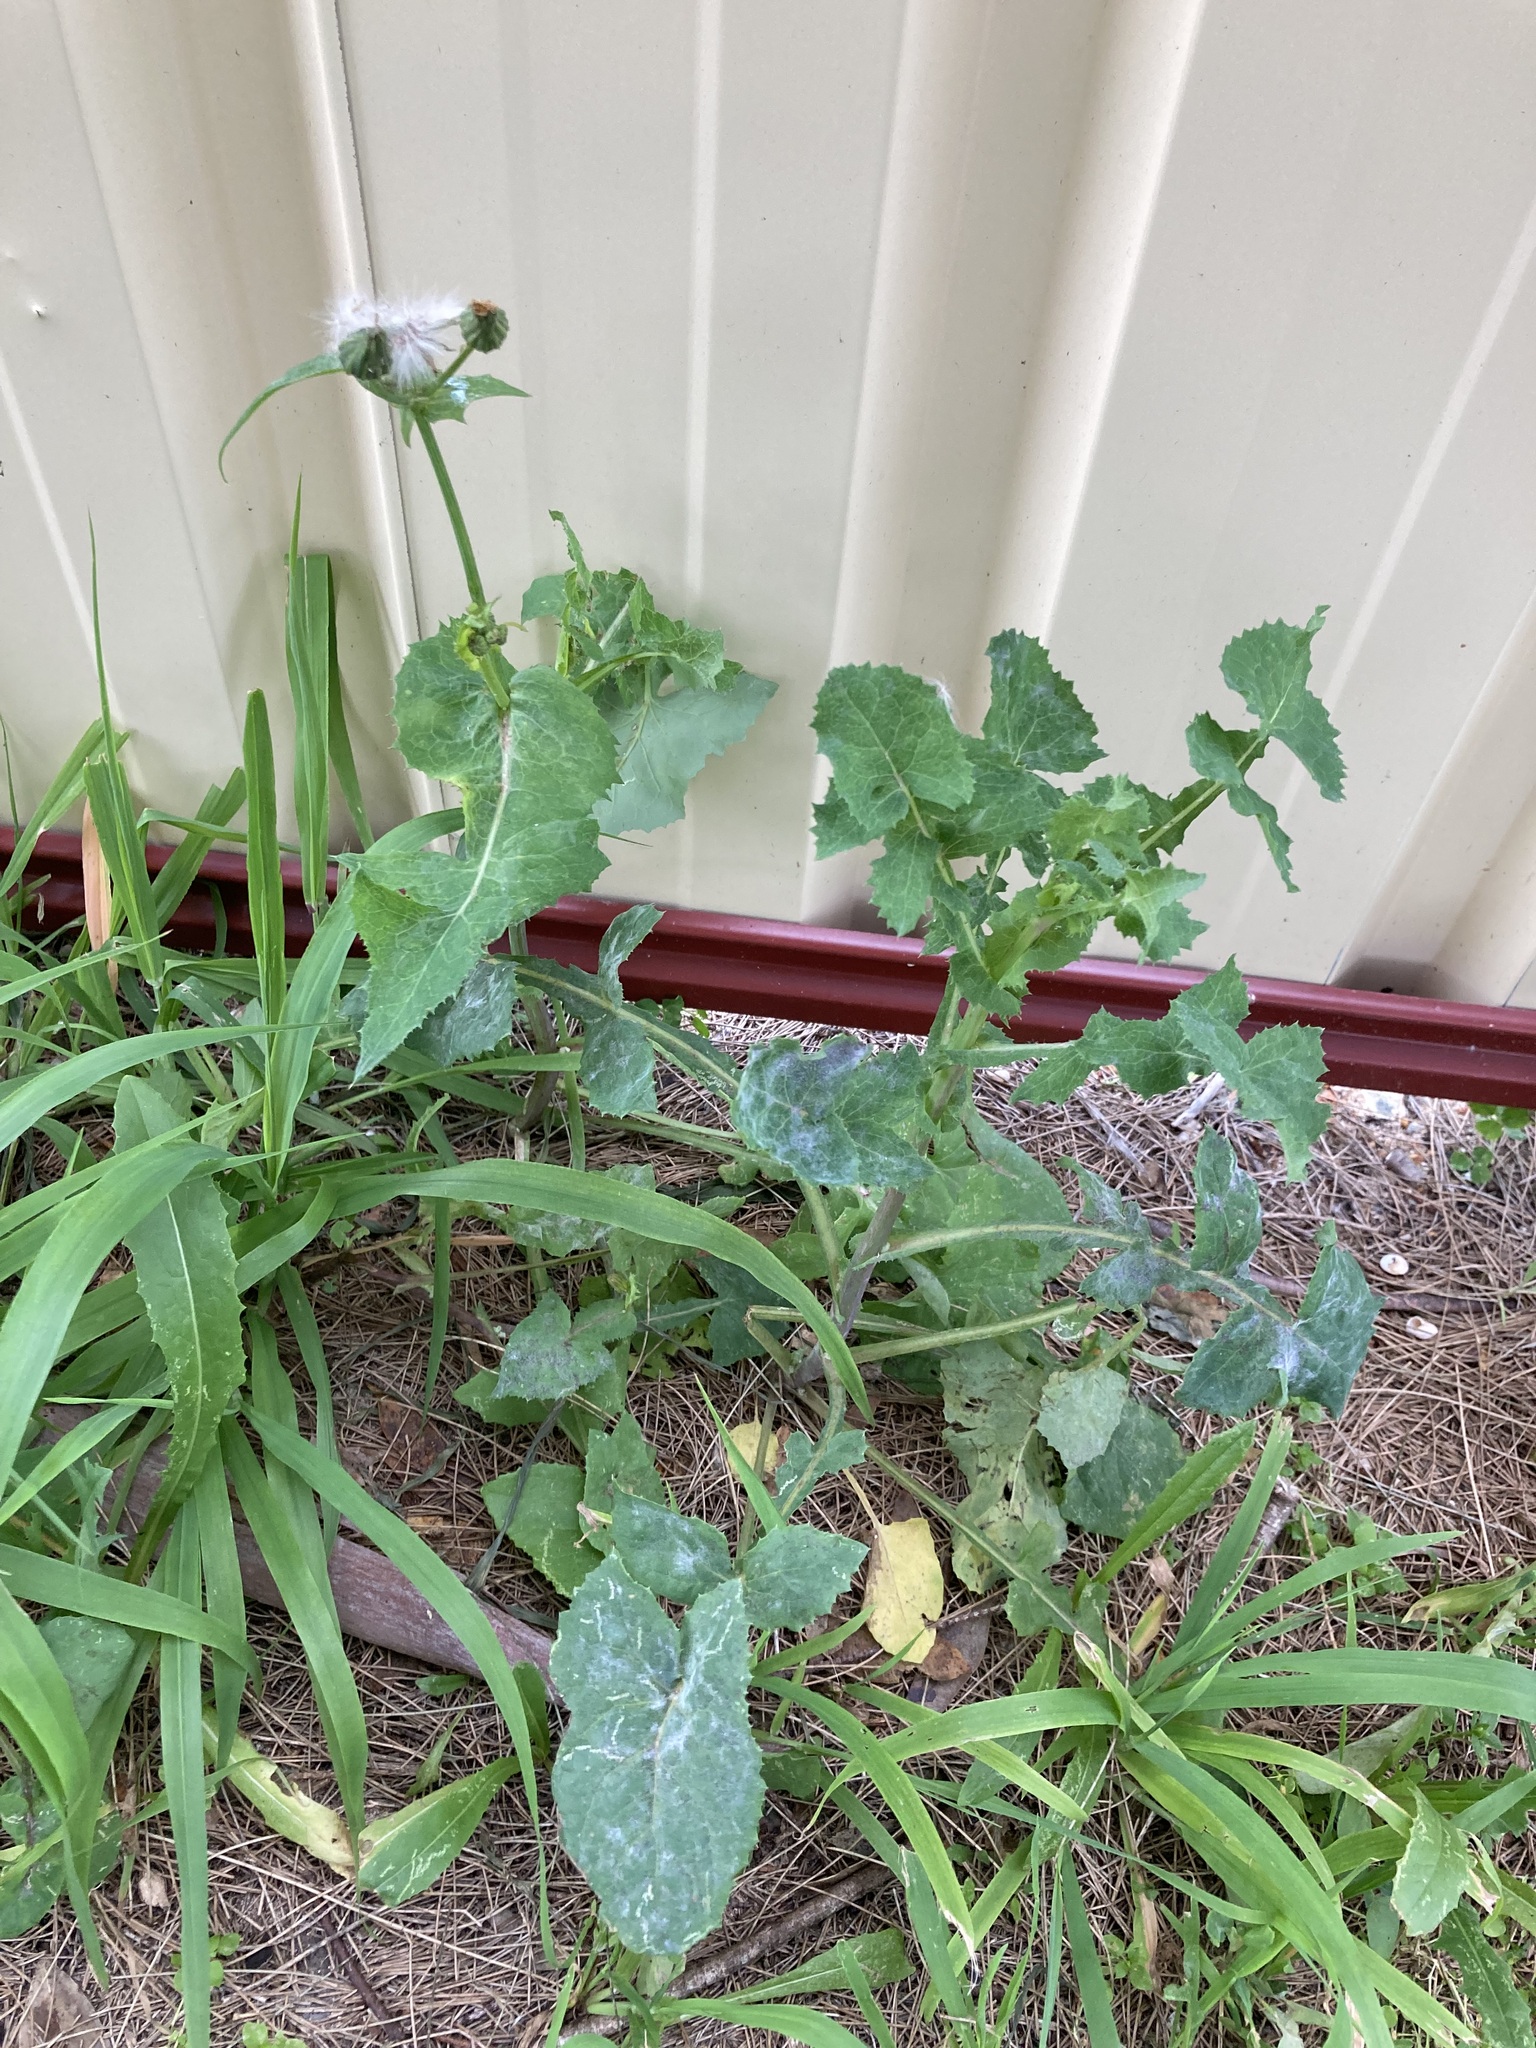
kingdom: Plantae
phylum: Tracheophyta
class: Magnoliopsida
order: Asterales
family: Asteraceae
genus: Sonchus
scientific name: Sonchus oleraceus
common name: Common sowthistle
